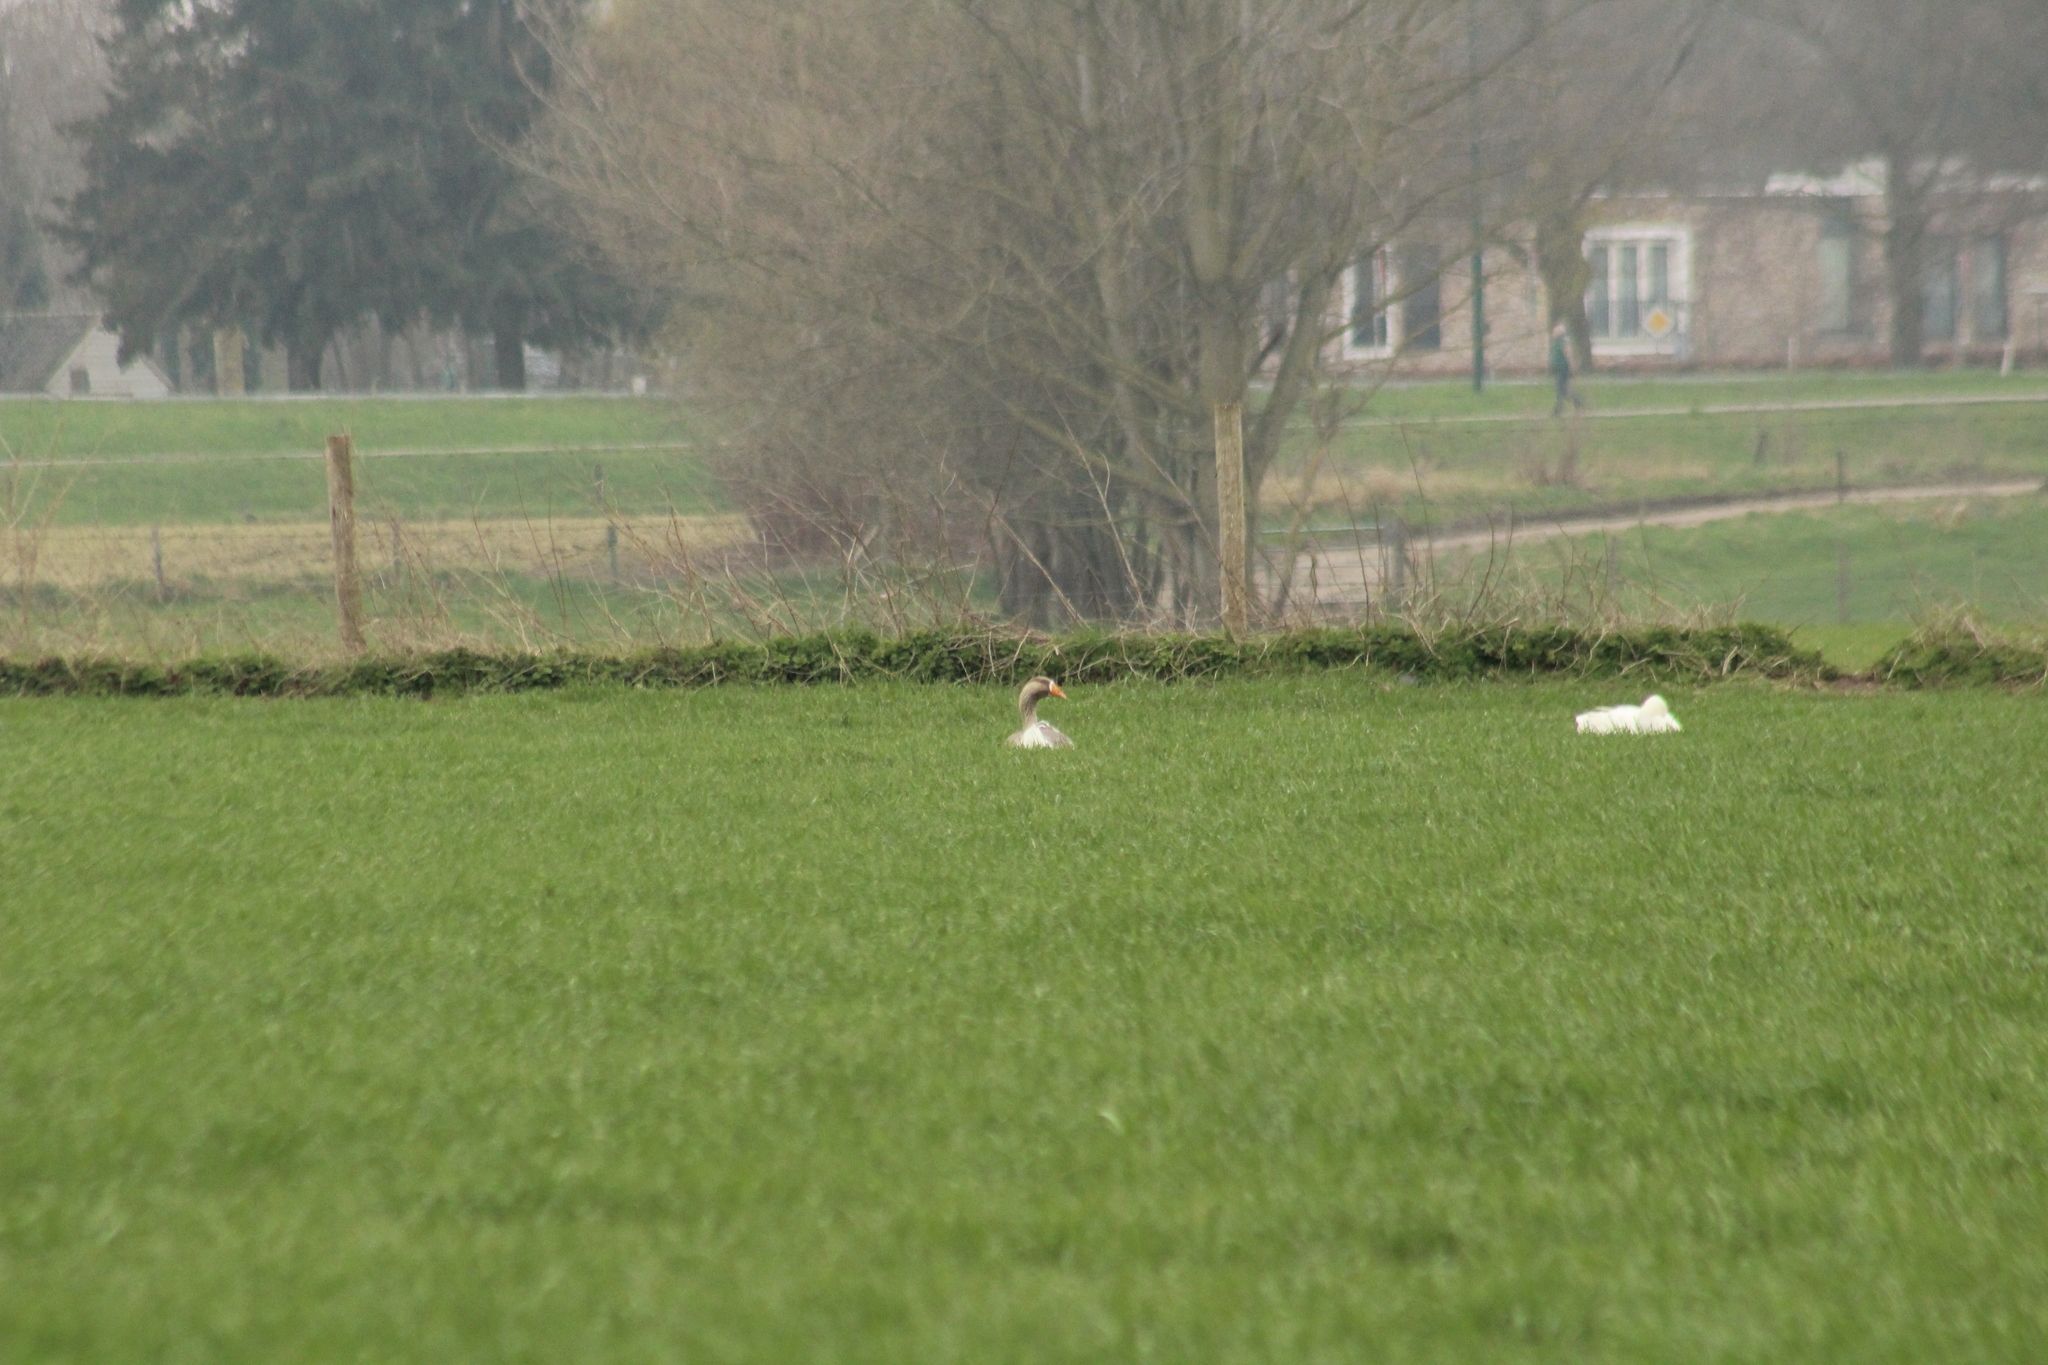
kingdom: Animalia
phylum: Chordata
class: Aves
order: Anseriformes
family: Anatidae
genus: Anser
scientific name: Anser anser
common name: Greylag goose
